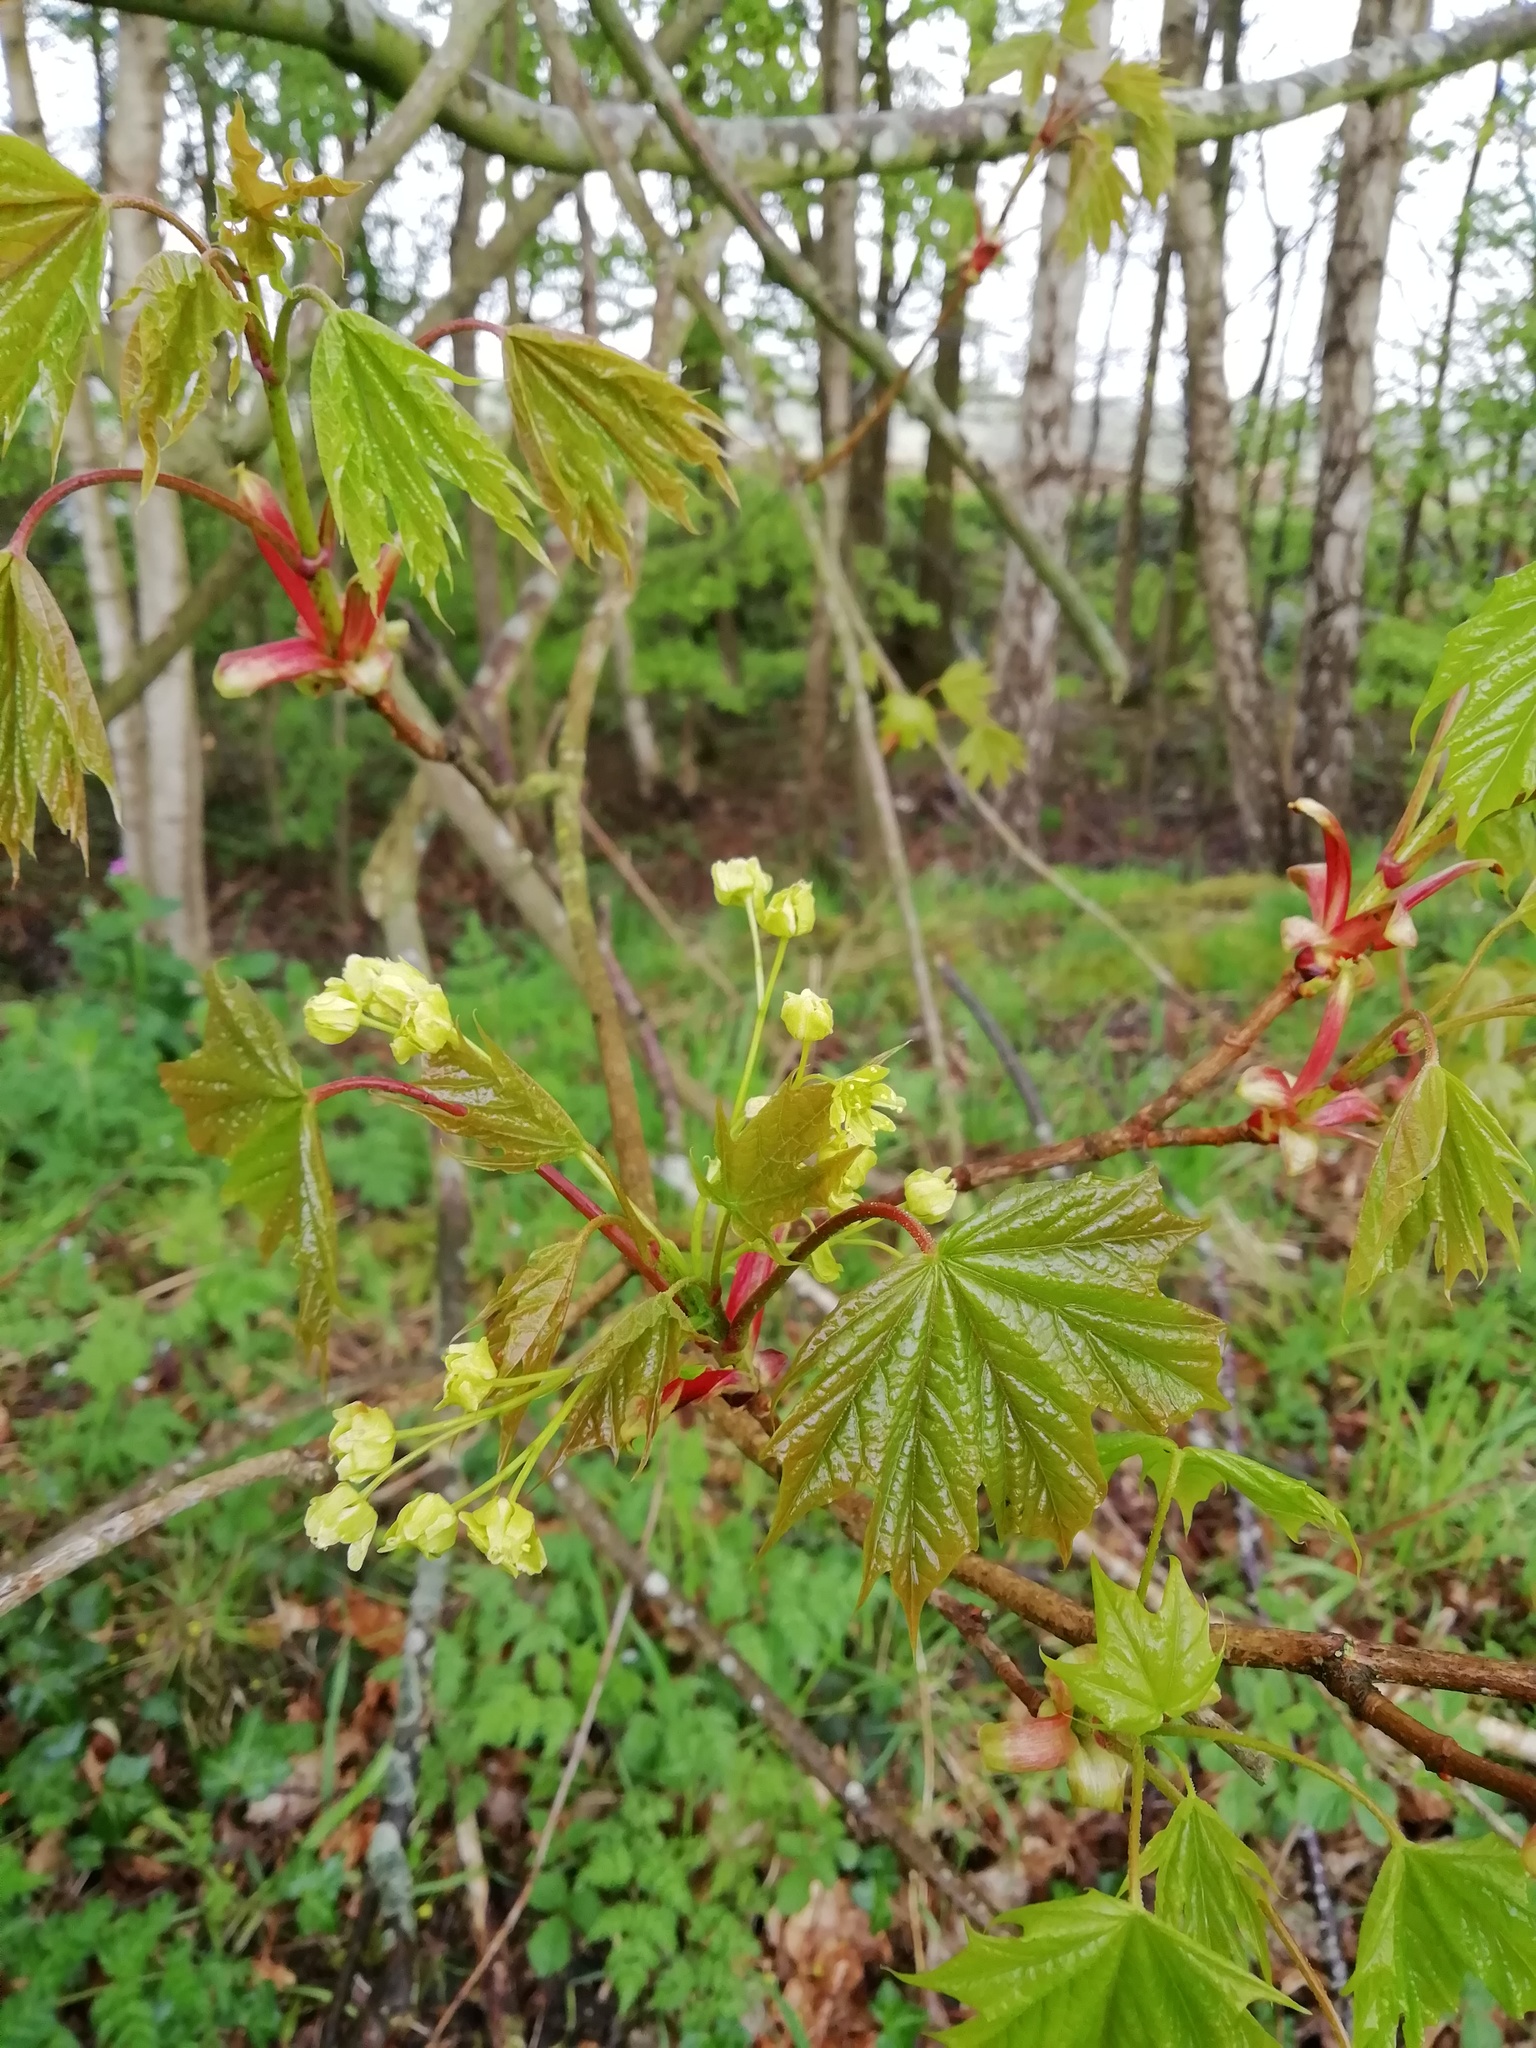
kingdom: Plantae
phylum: Tracheophyta
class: Magnoliopsida
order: Sapindales
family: Sapindaceae
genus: Acer
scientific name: Acer platanoides
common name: Norway maple
